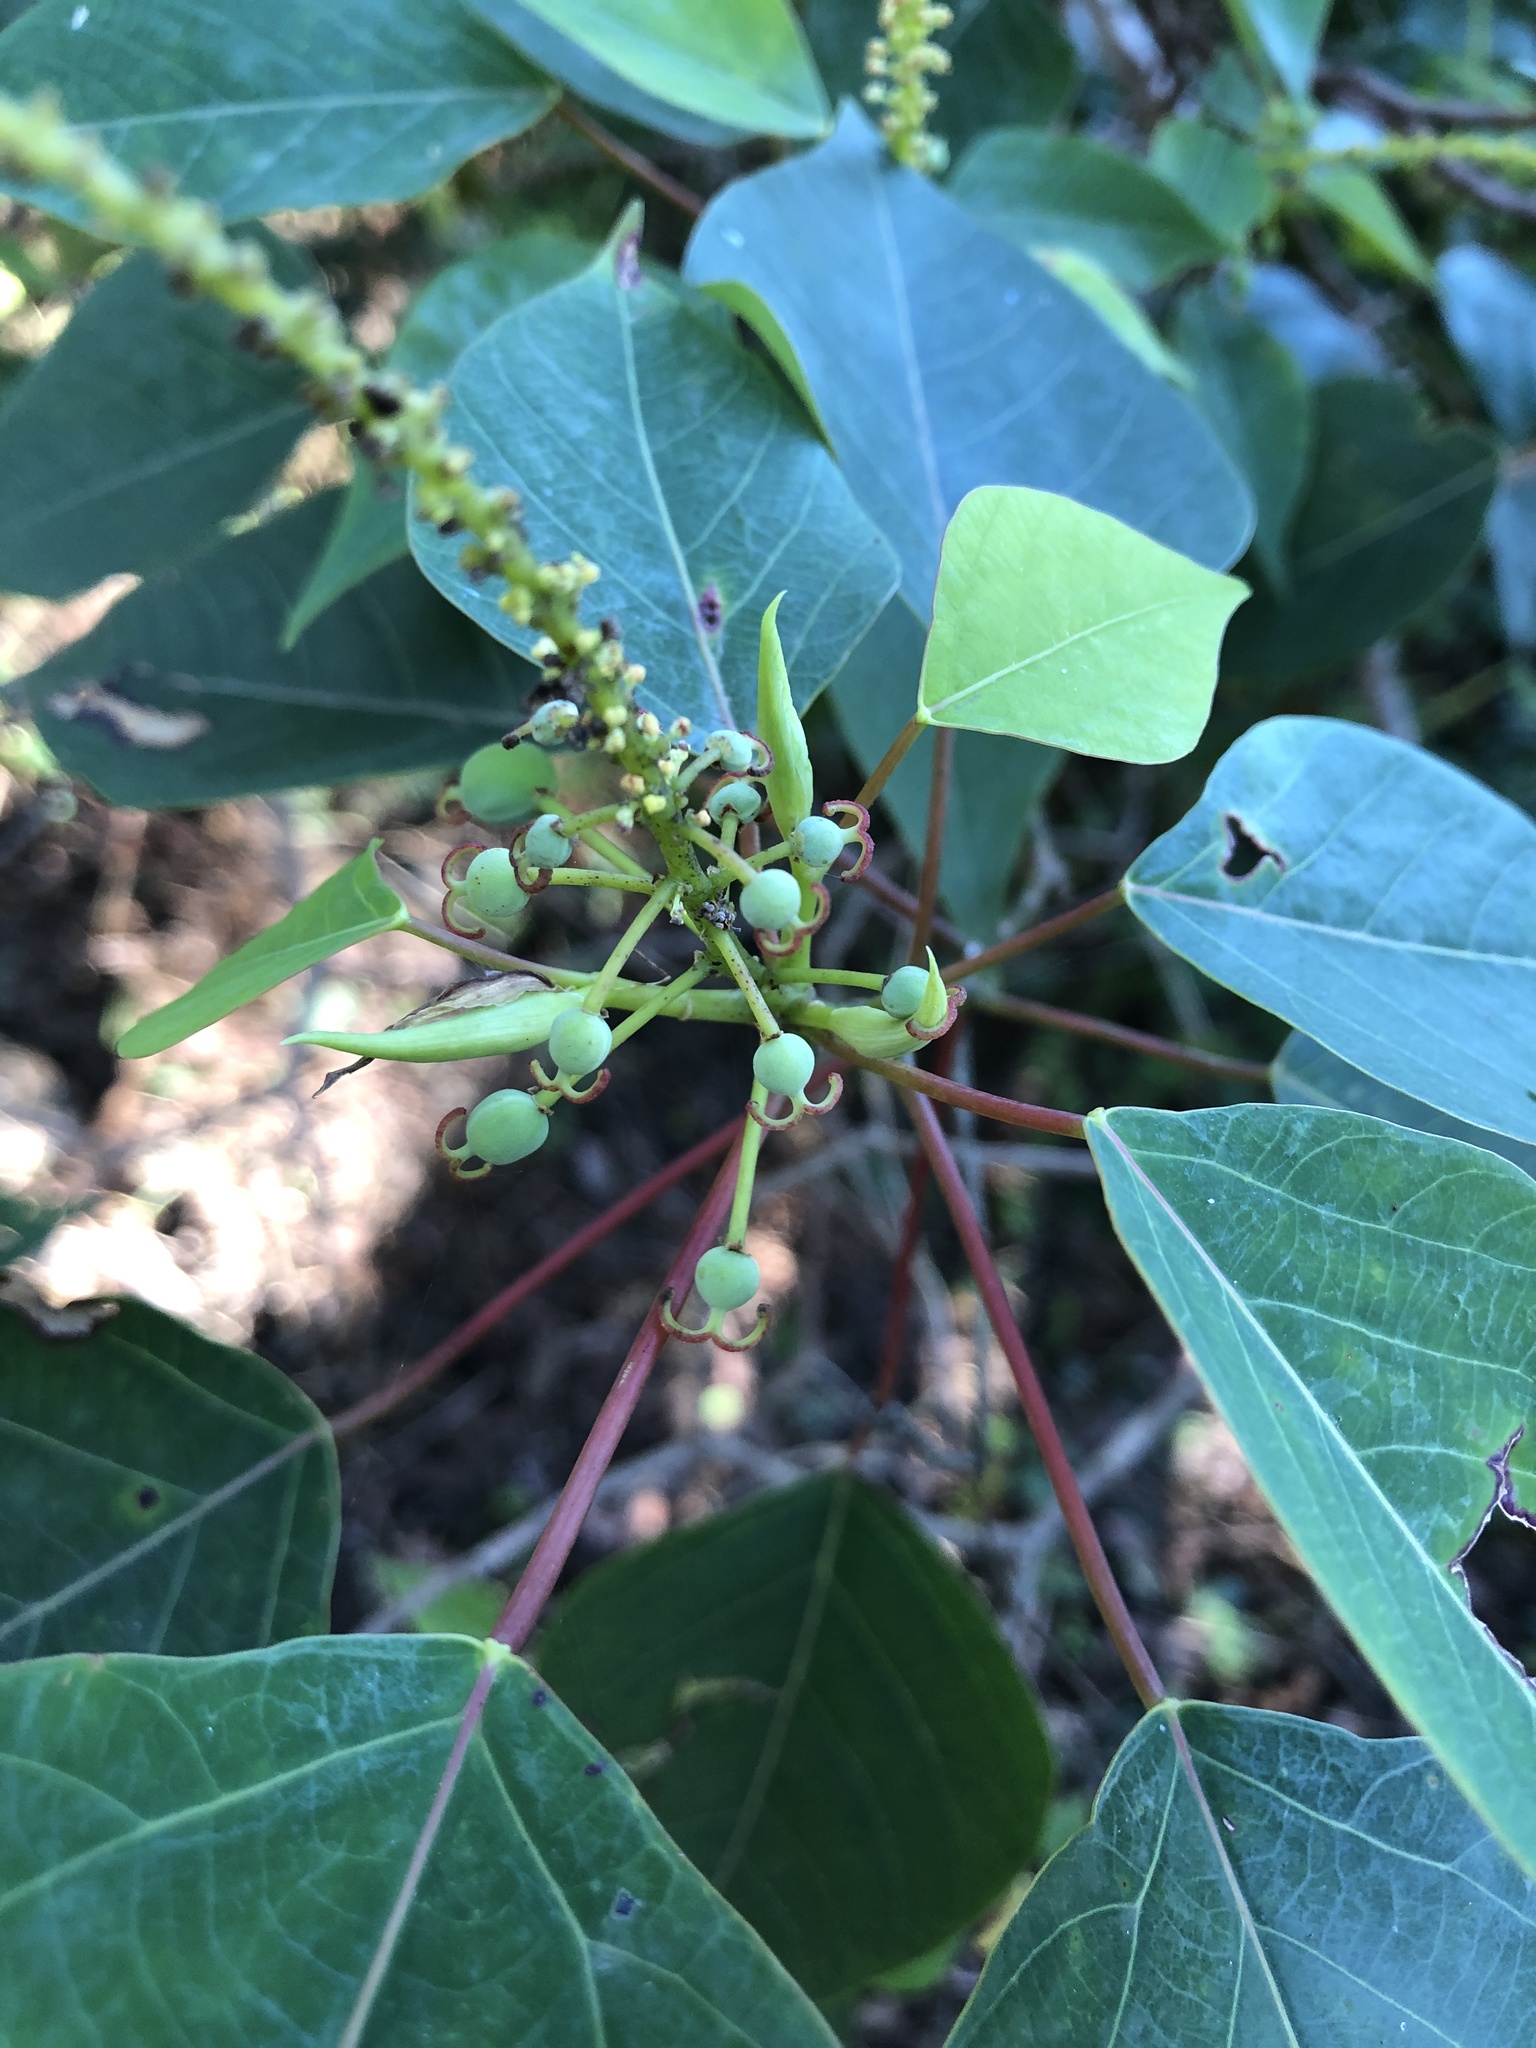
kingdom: Plantae
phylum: Tracheophyta
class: Magnoliopsida
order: Malpighiales
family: Euphorbiaceae
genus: Homalanthus
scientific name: Homalanthus populifolius
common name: Queensland poplar
